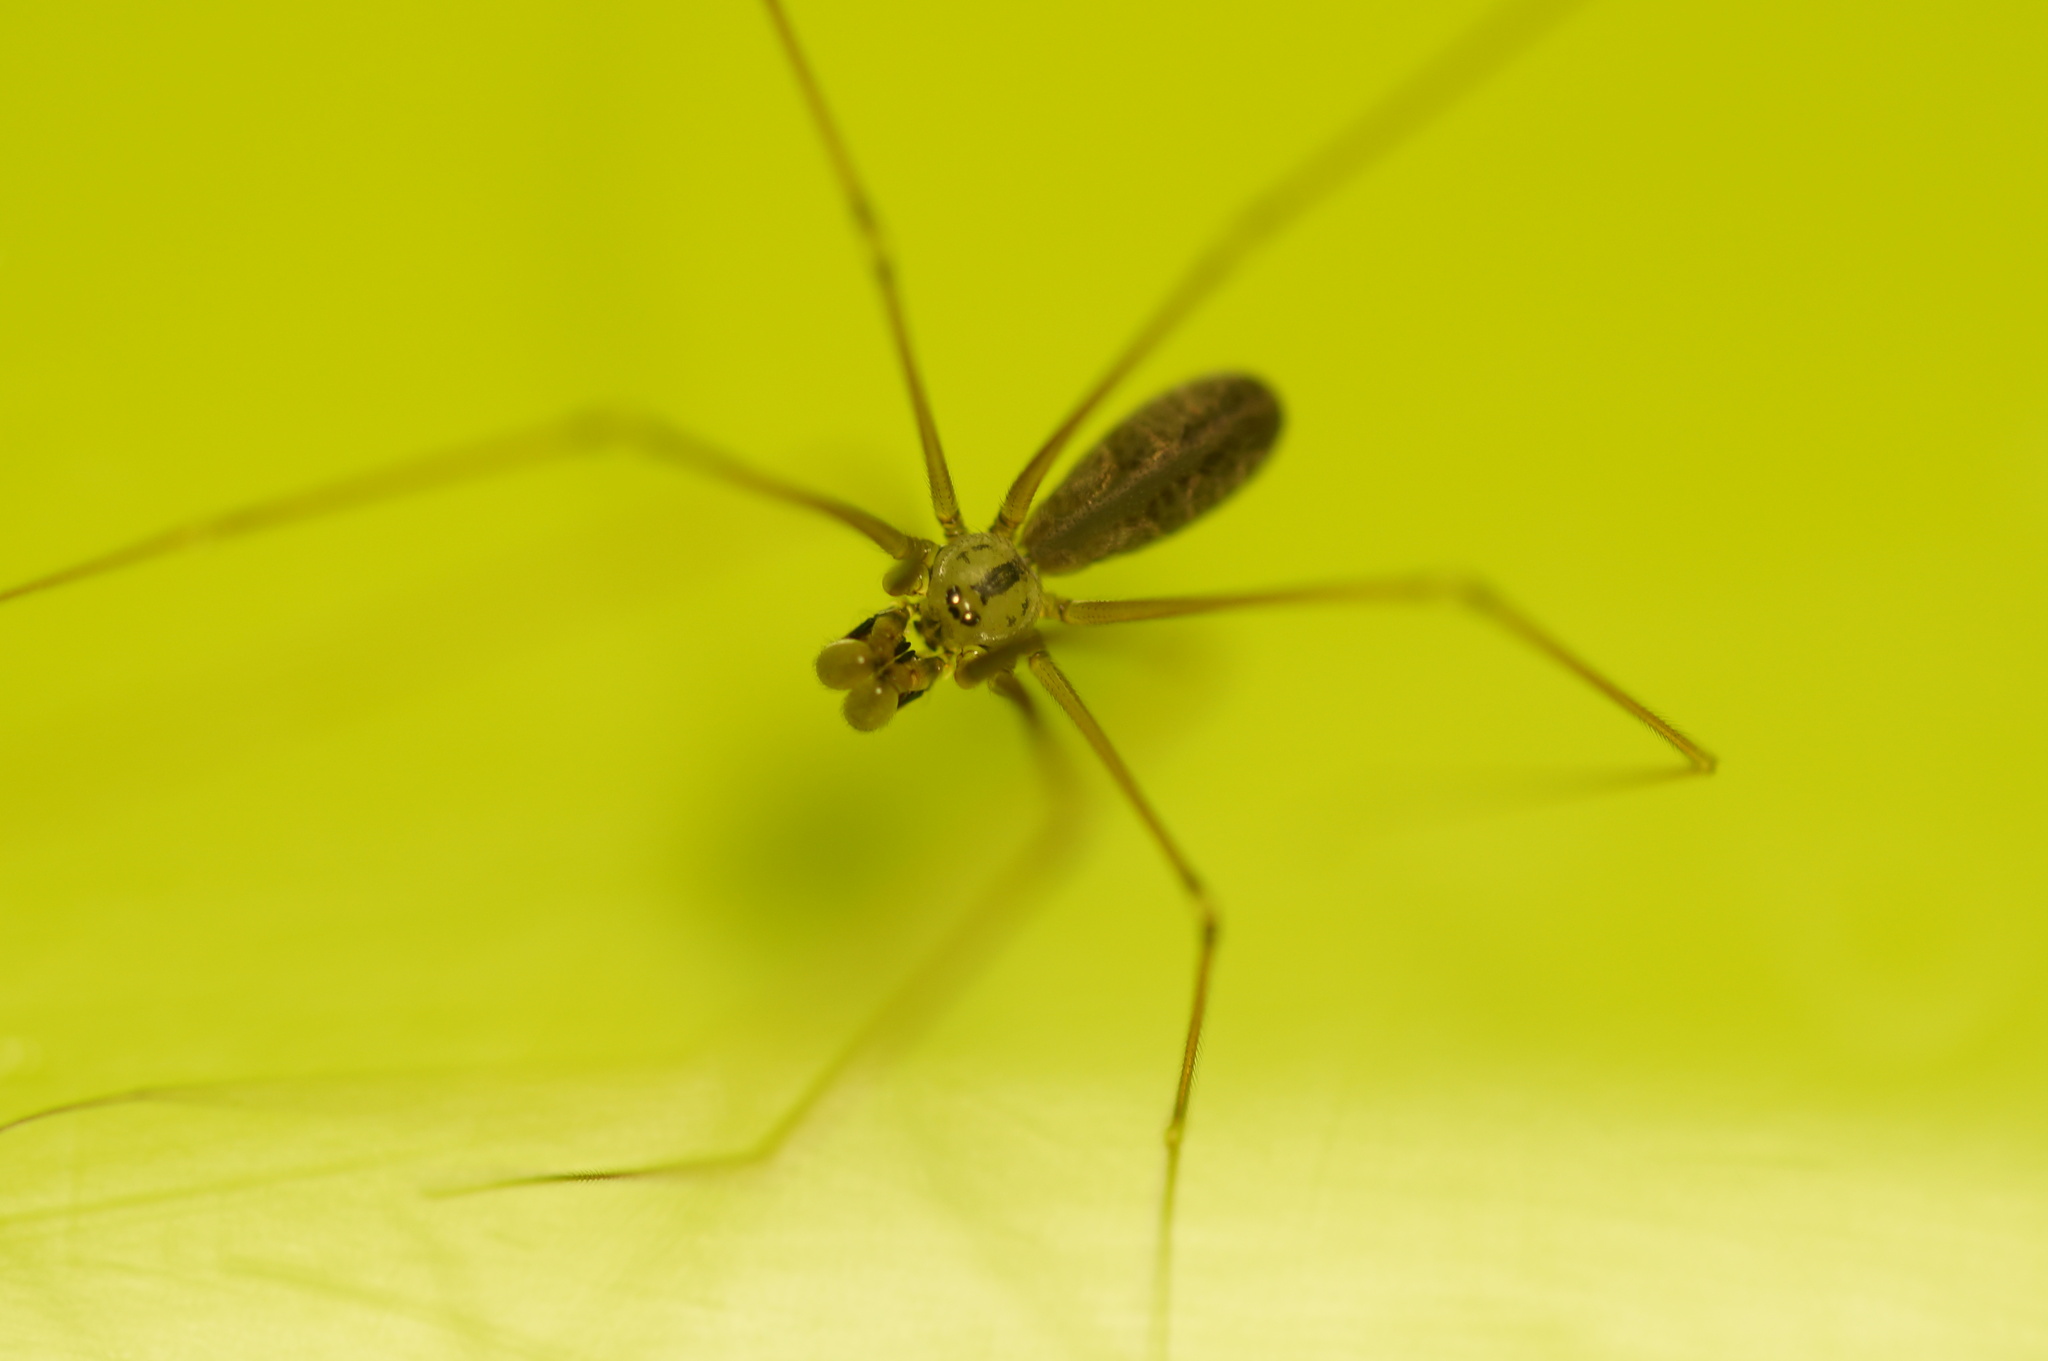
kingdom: Animalia
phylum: Arthropoda
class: Arachnida
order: Araneae
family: Pholcidae
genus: Pholcus
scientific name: Pholcus opilionoides
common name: Daddylongleg spider
